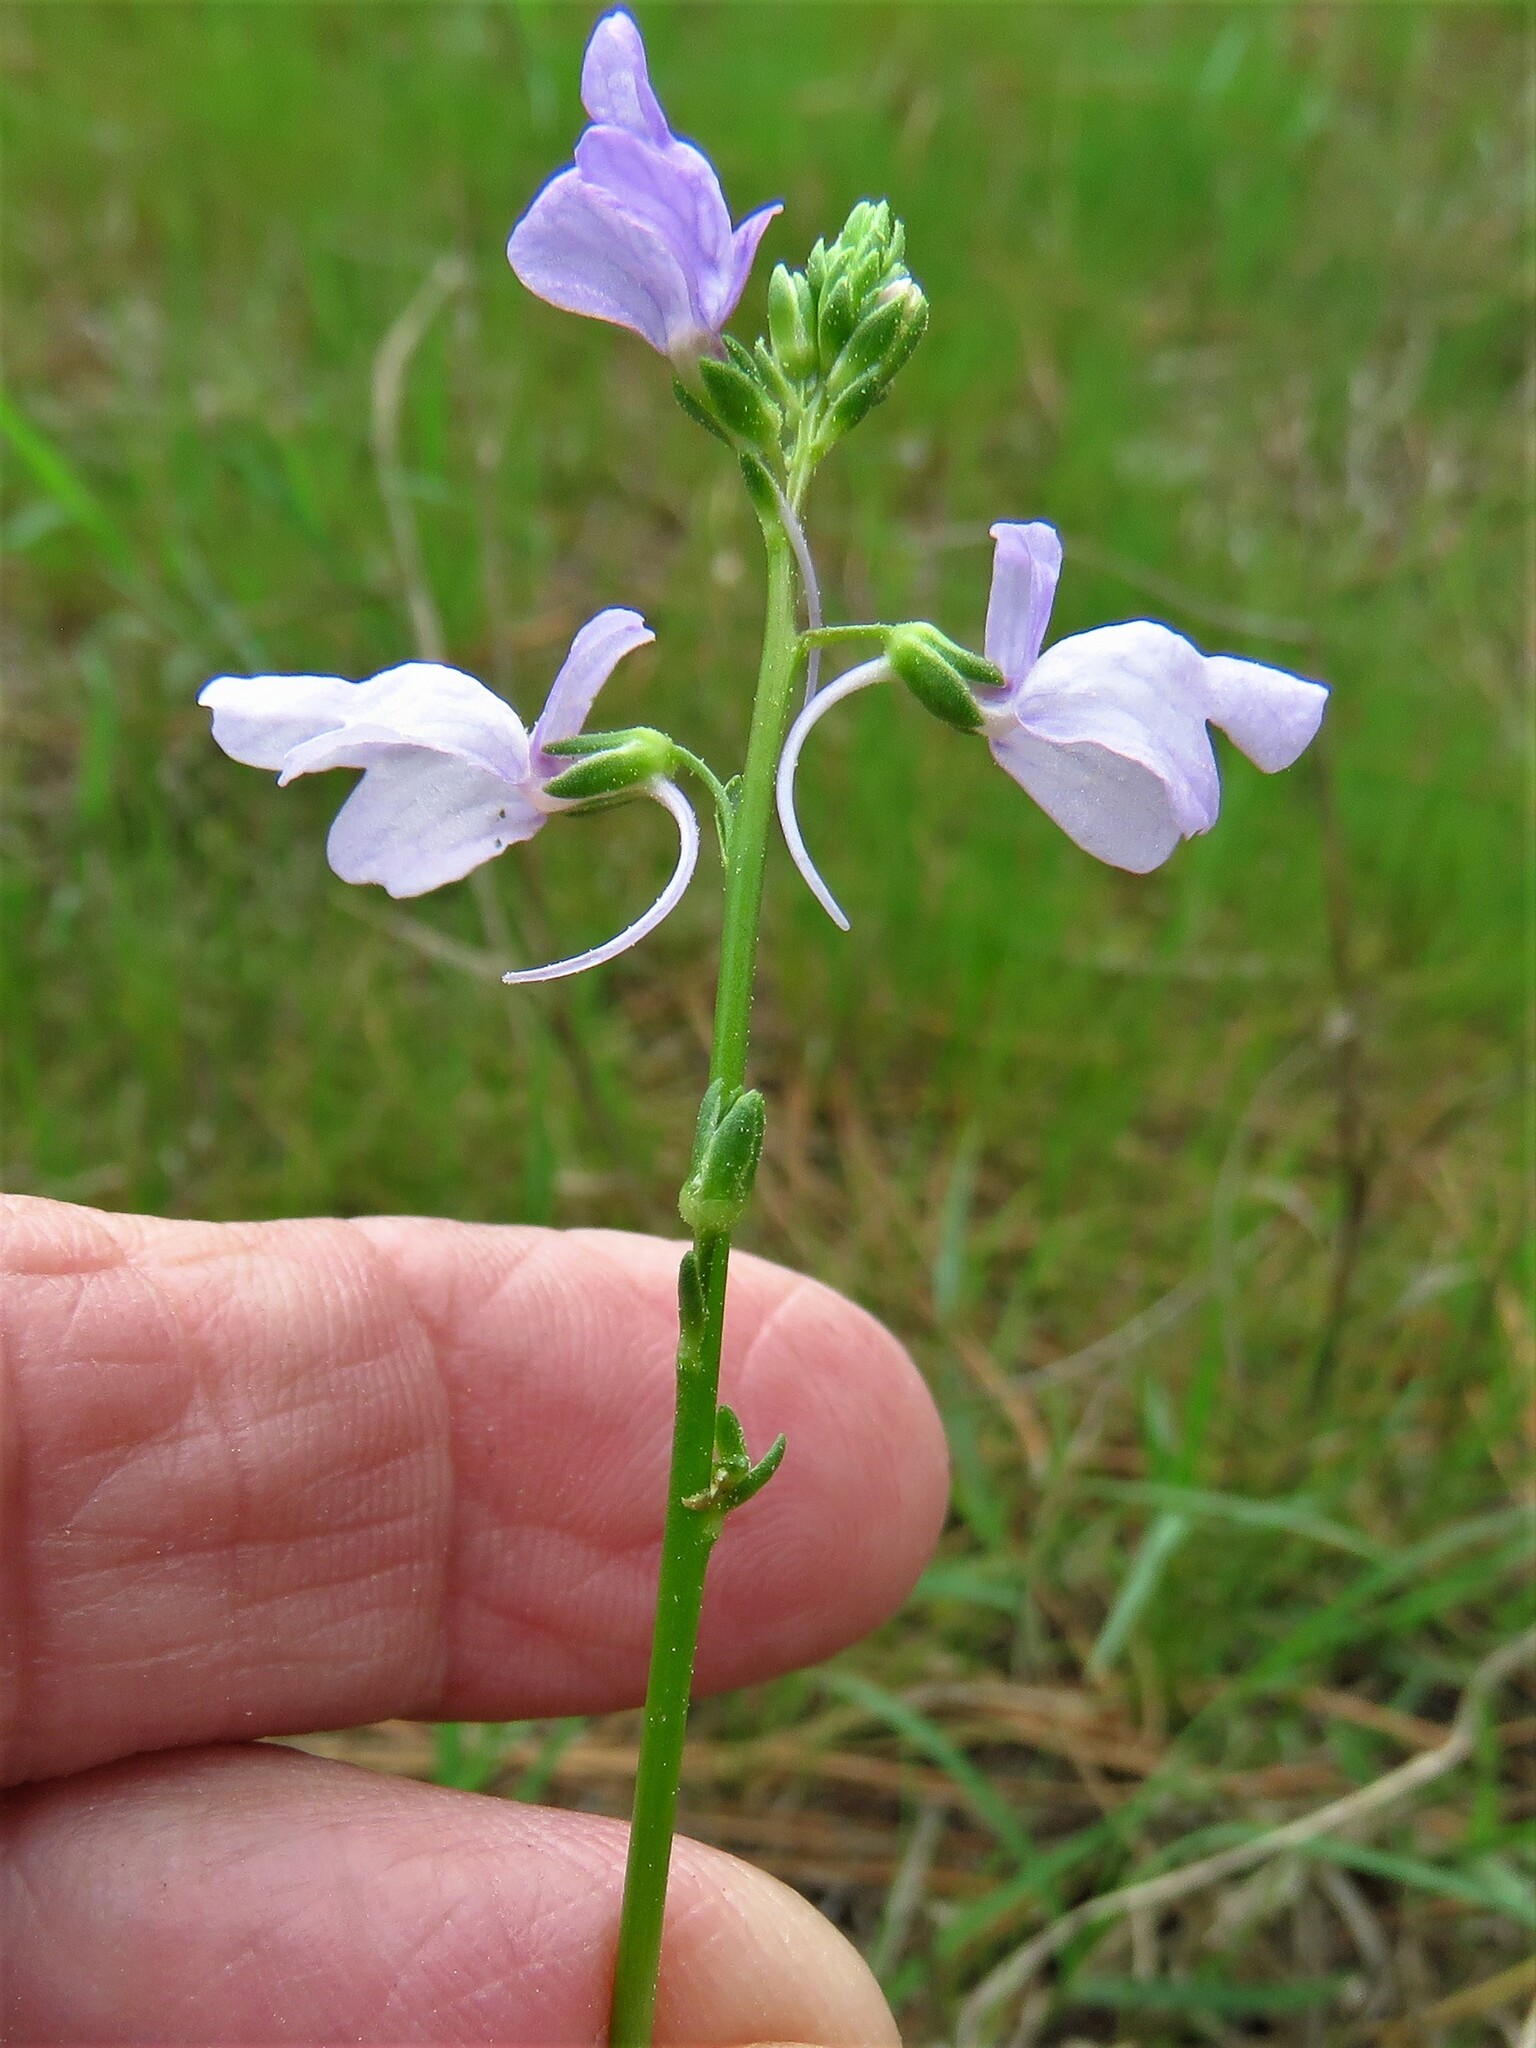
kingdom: Plantae
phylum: Tracheophyta
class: Magnoliopsida
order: Lamiales
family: Plantaginaceae
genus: Nuttallanthus
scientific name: Nuttallanthus texanus
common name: Texas toadflax
